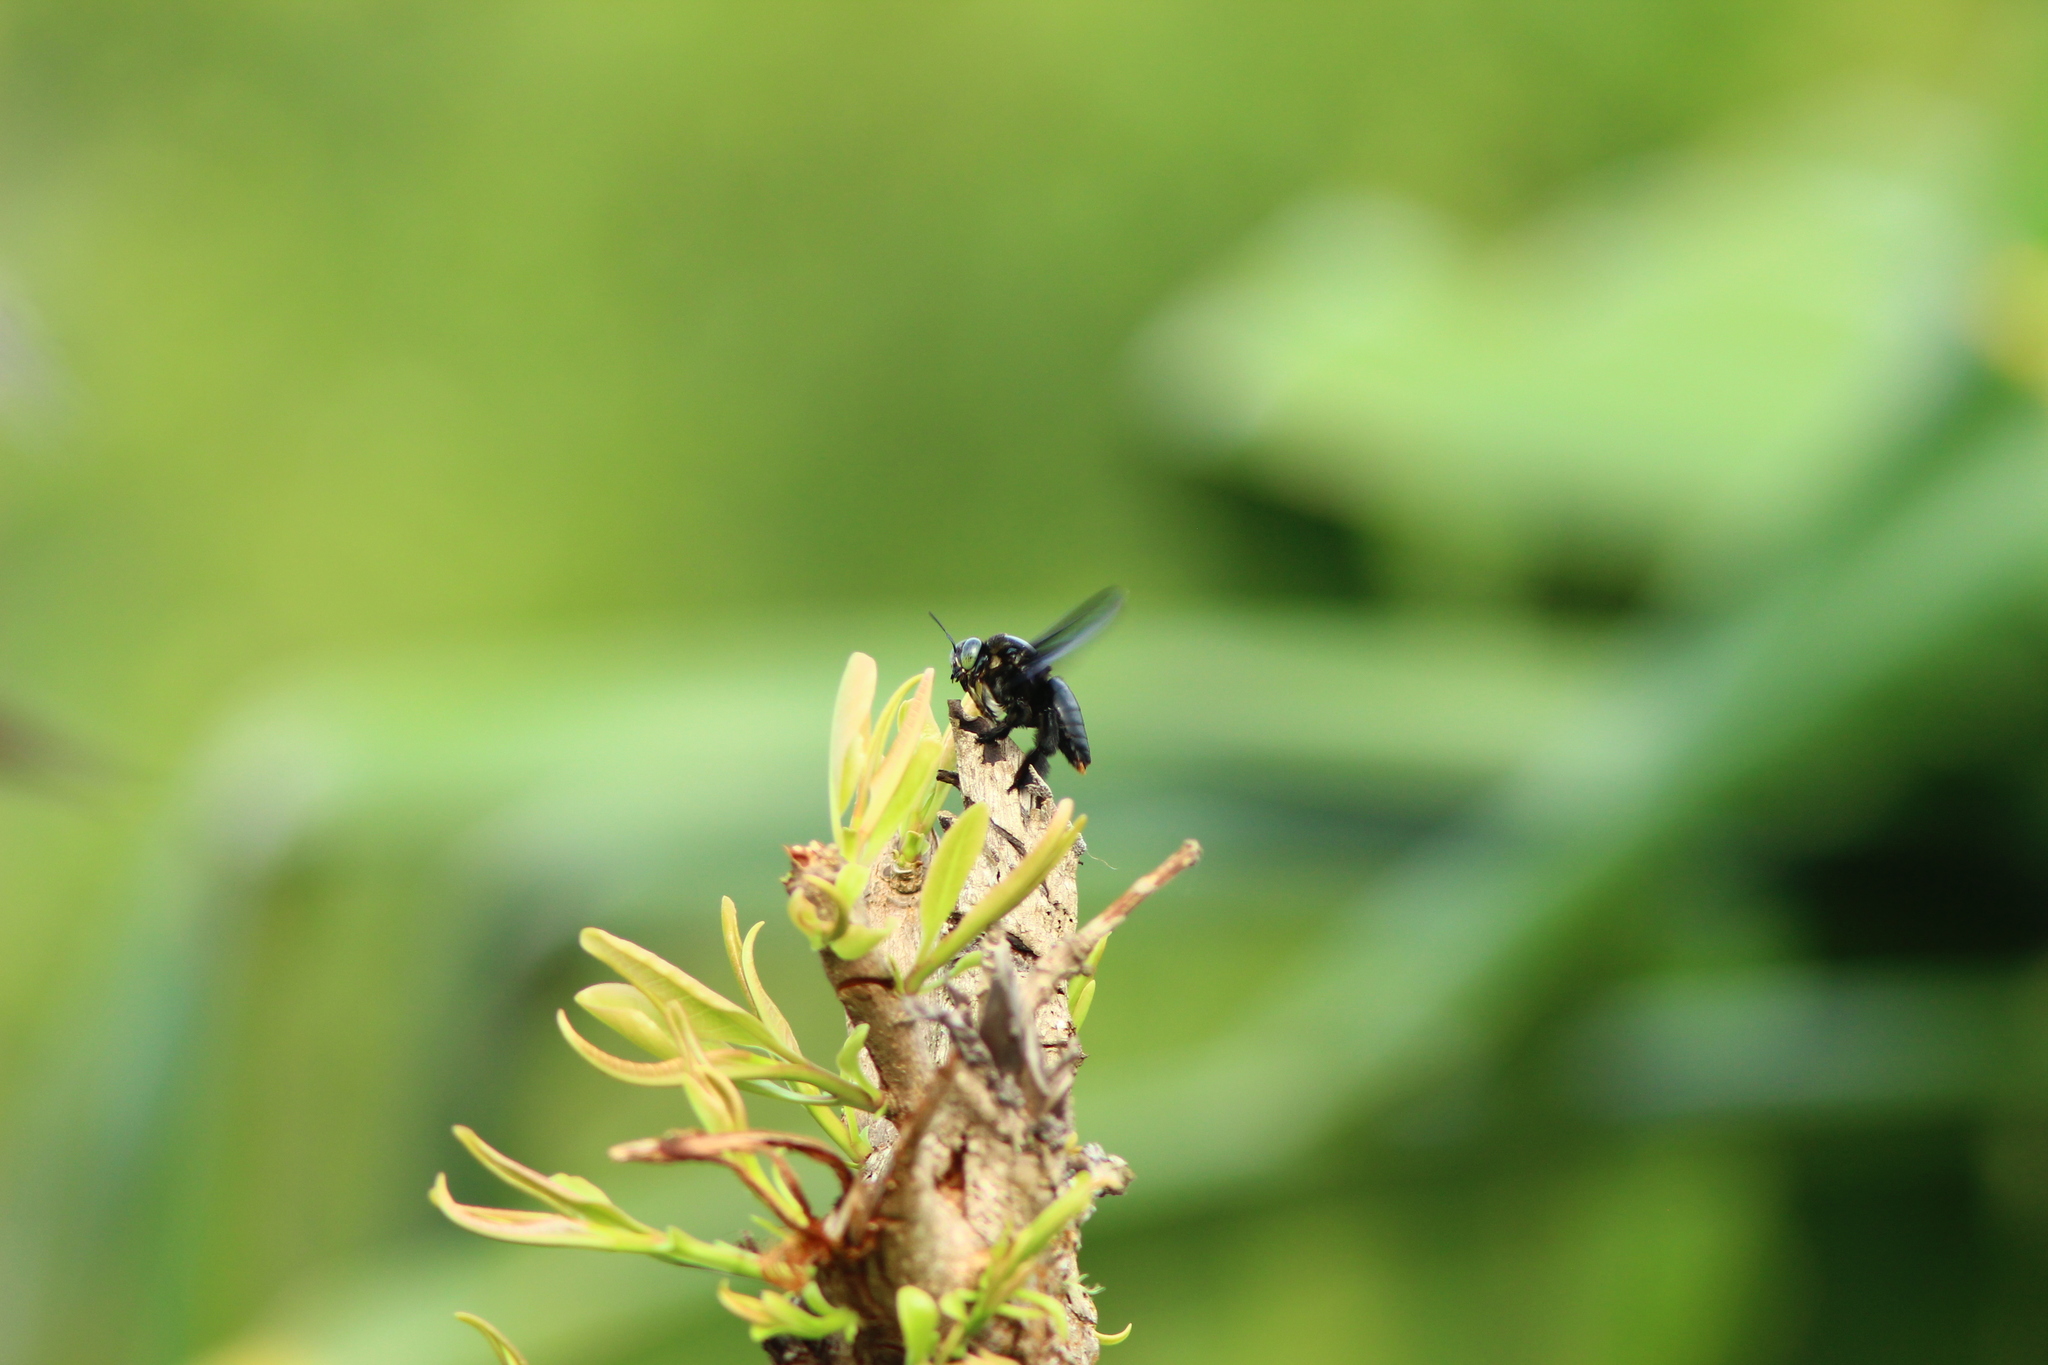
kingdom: Animalia
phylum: Arthropoda
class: Insecta
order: Hymenoptera
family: Apidae
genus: Xylocopa
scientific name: Xylocopa latipes
